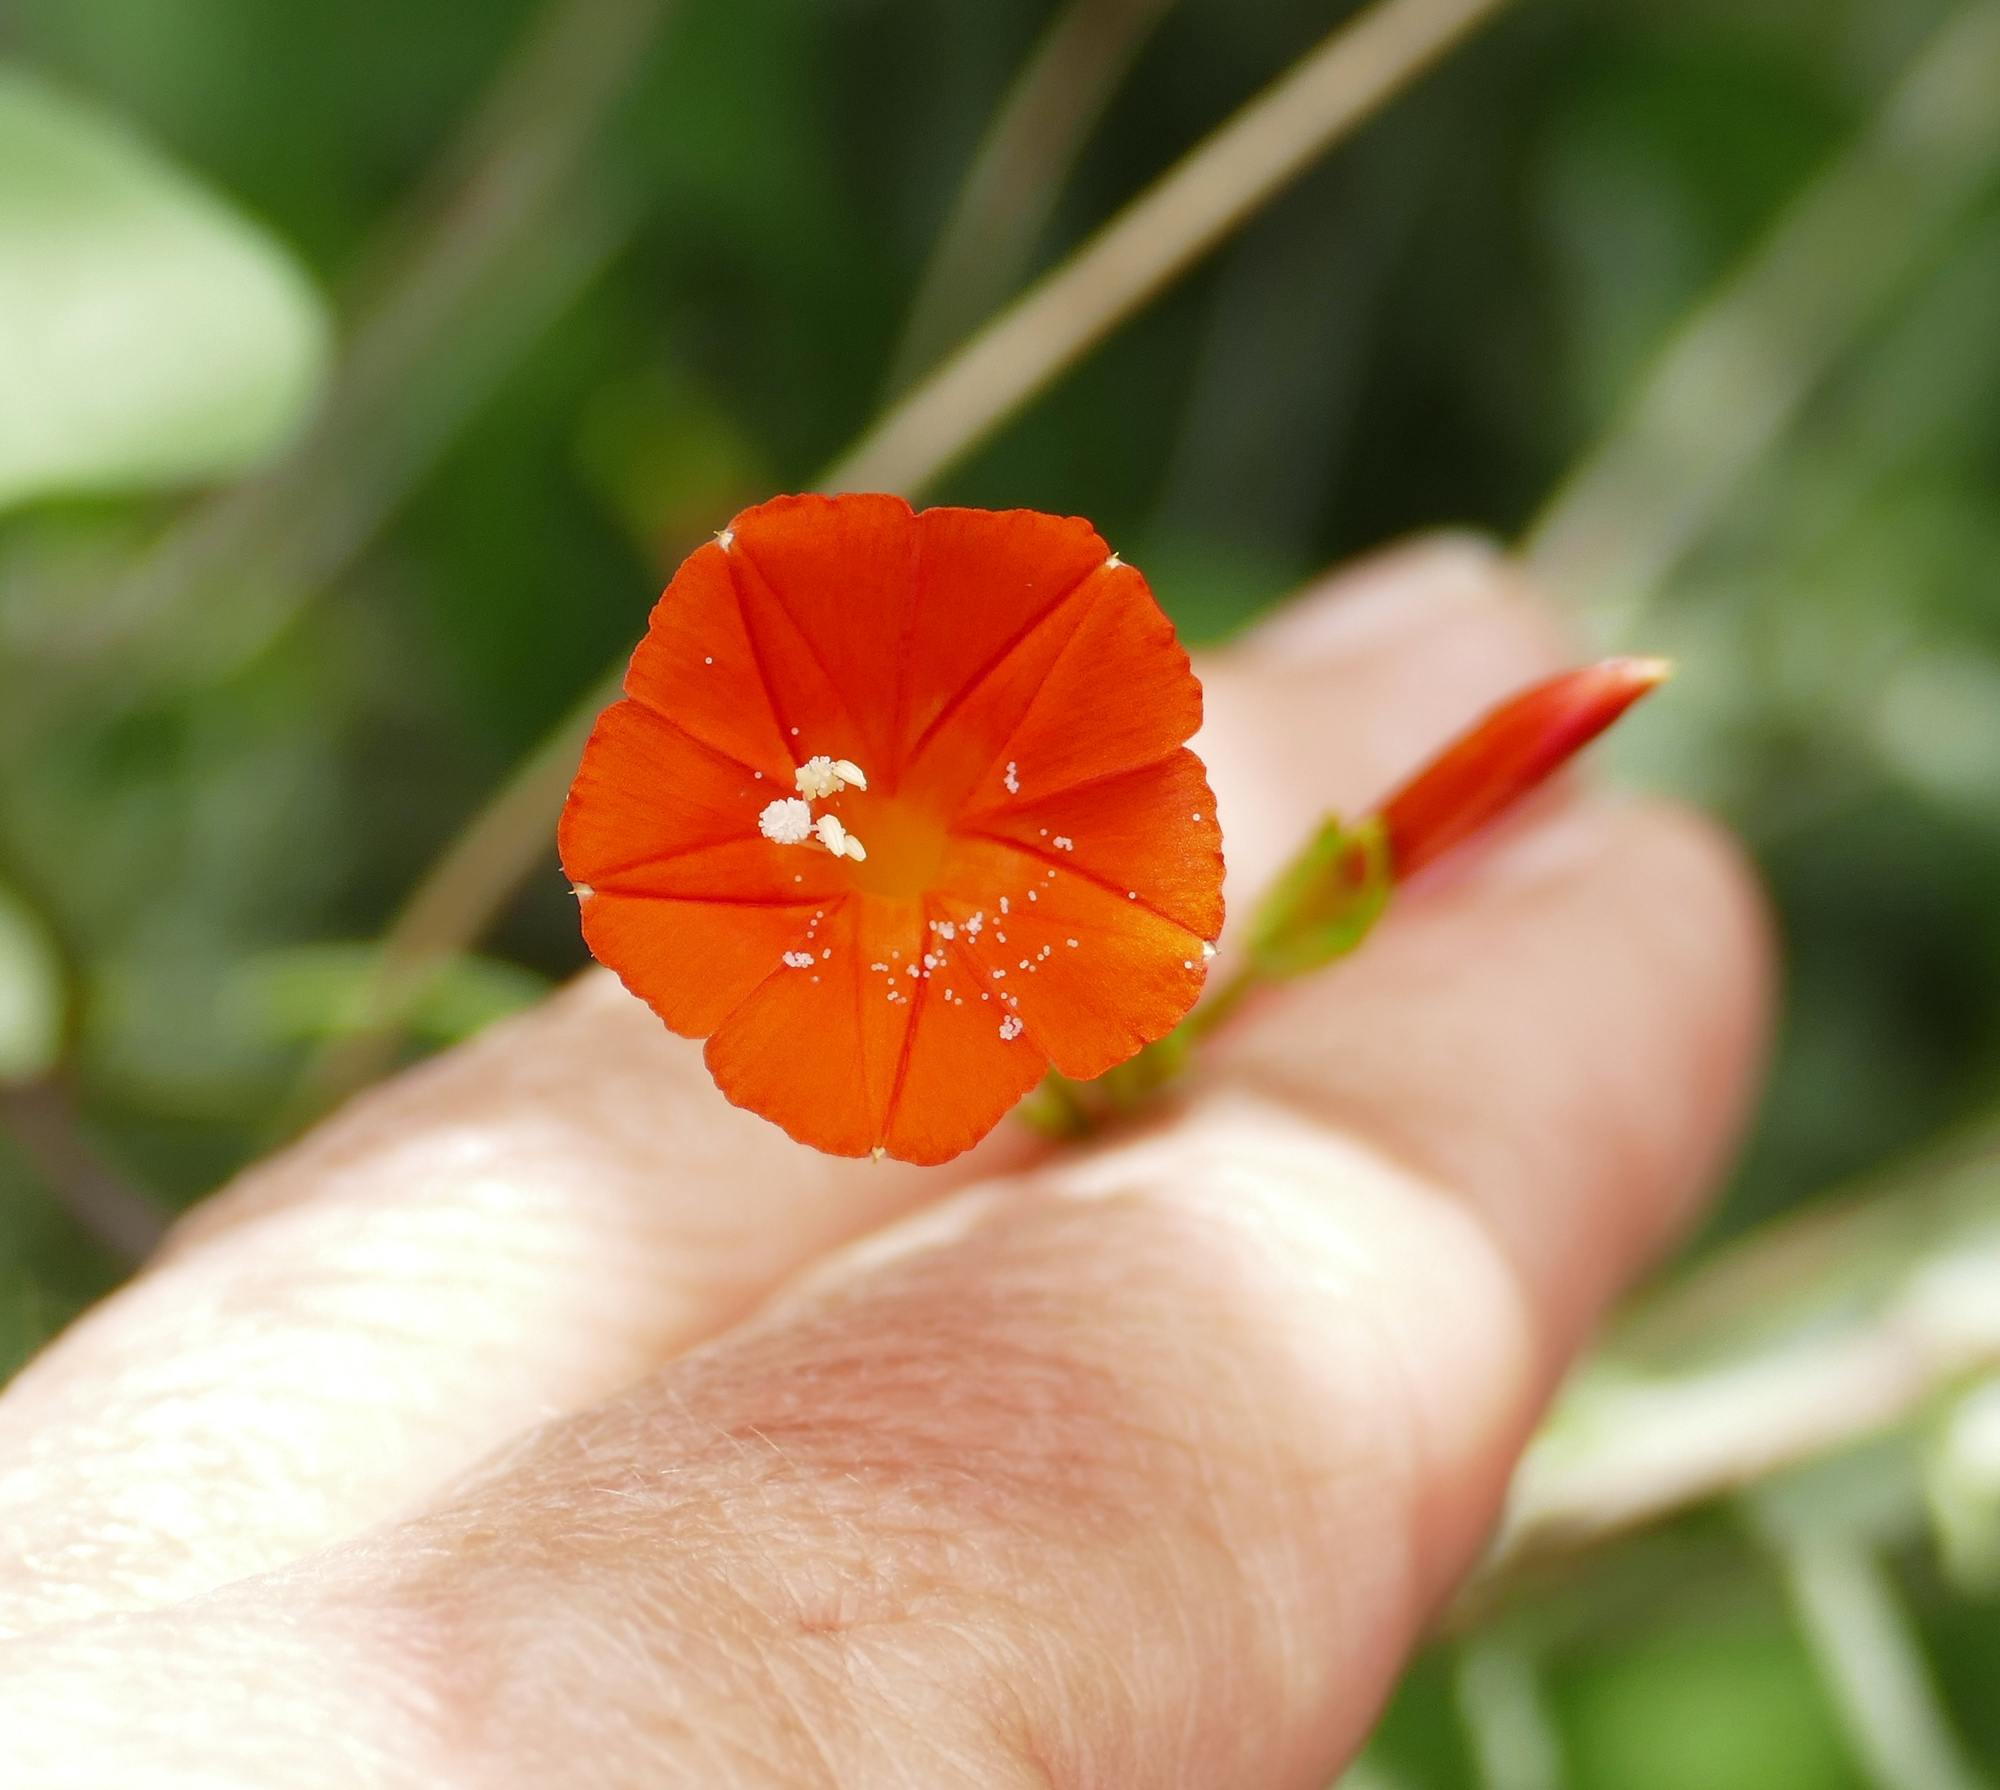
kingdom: Plantae
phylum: Tracheophyta
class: Magnoliopsida
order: Solanales
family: Convolvulaceae
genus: Ipomoea
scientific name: Ipomoea cristulata
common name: Trans-pecos morning-glory
